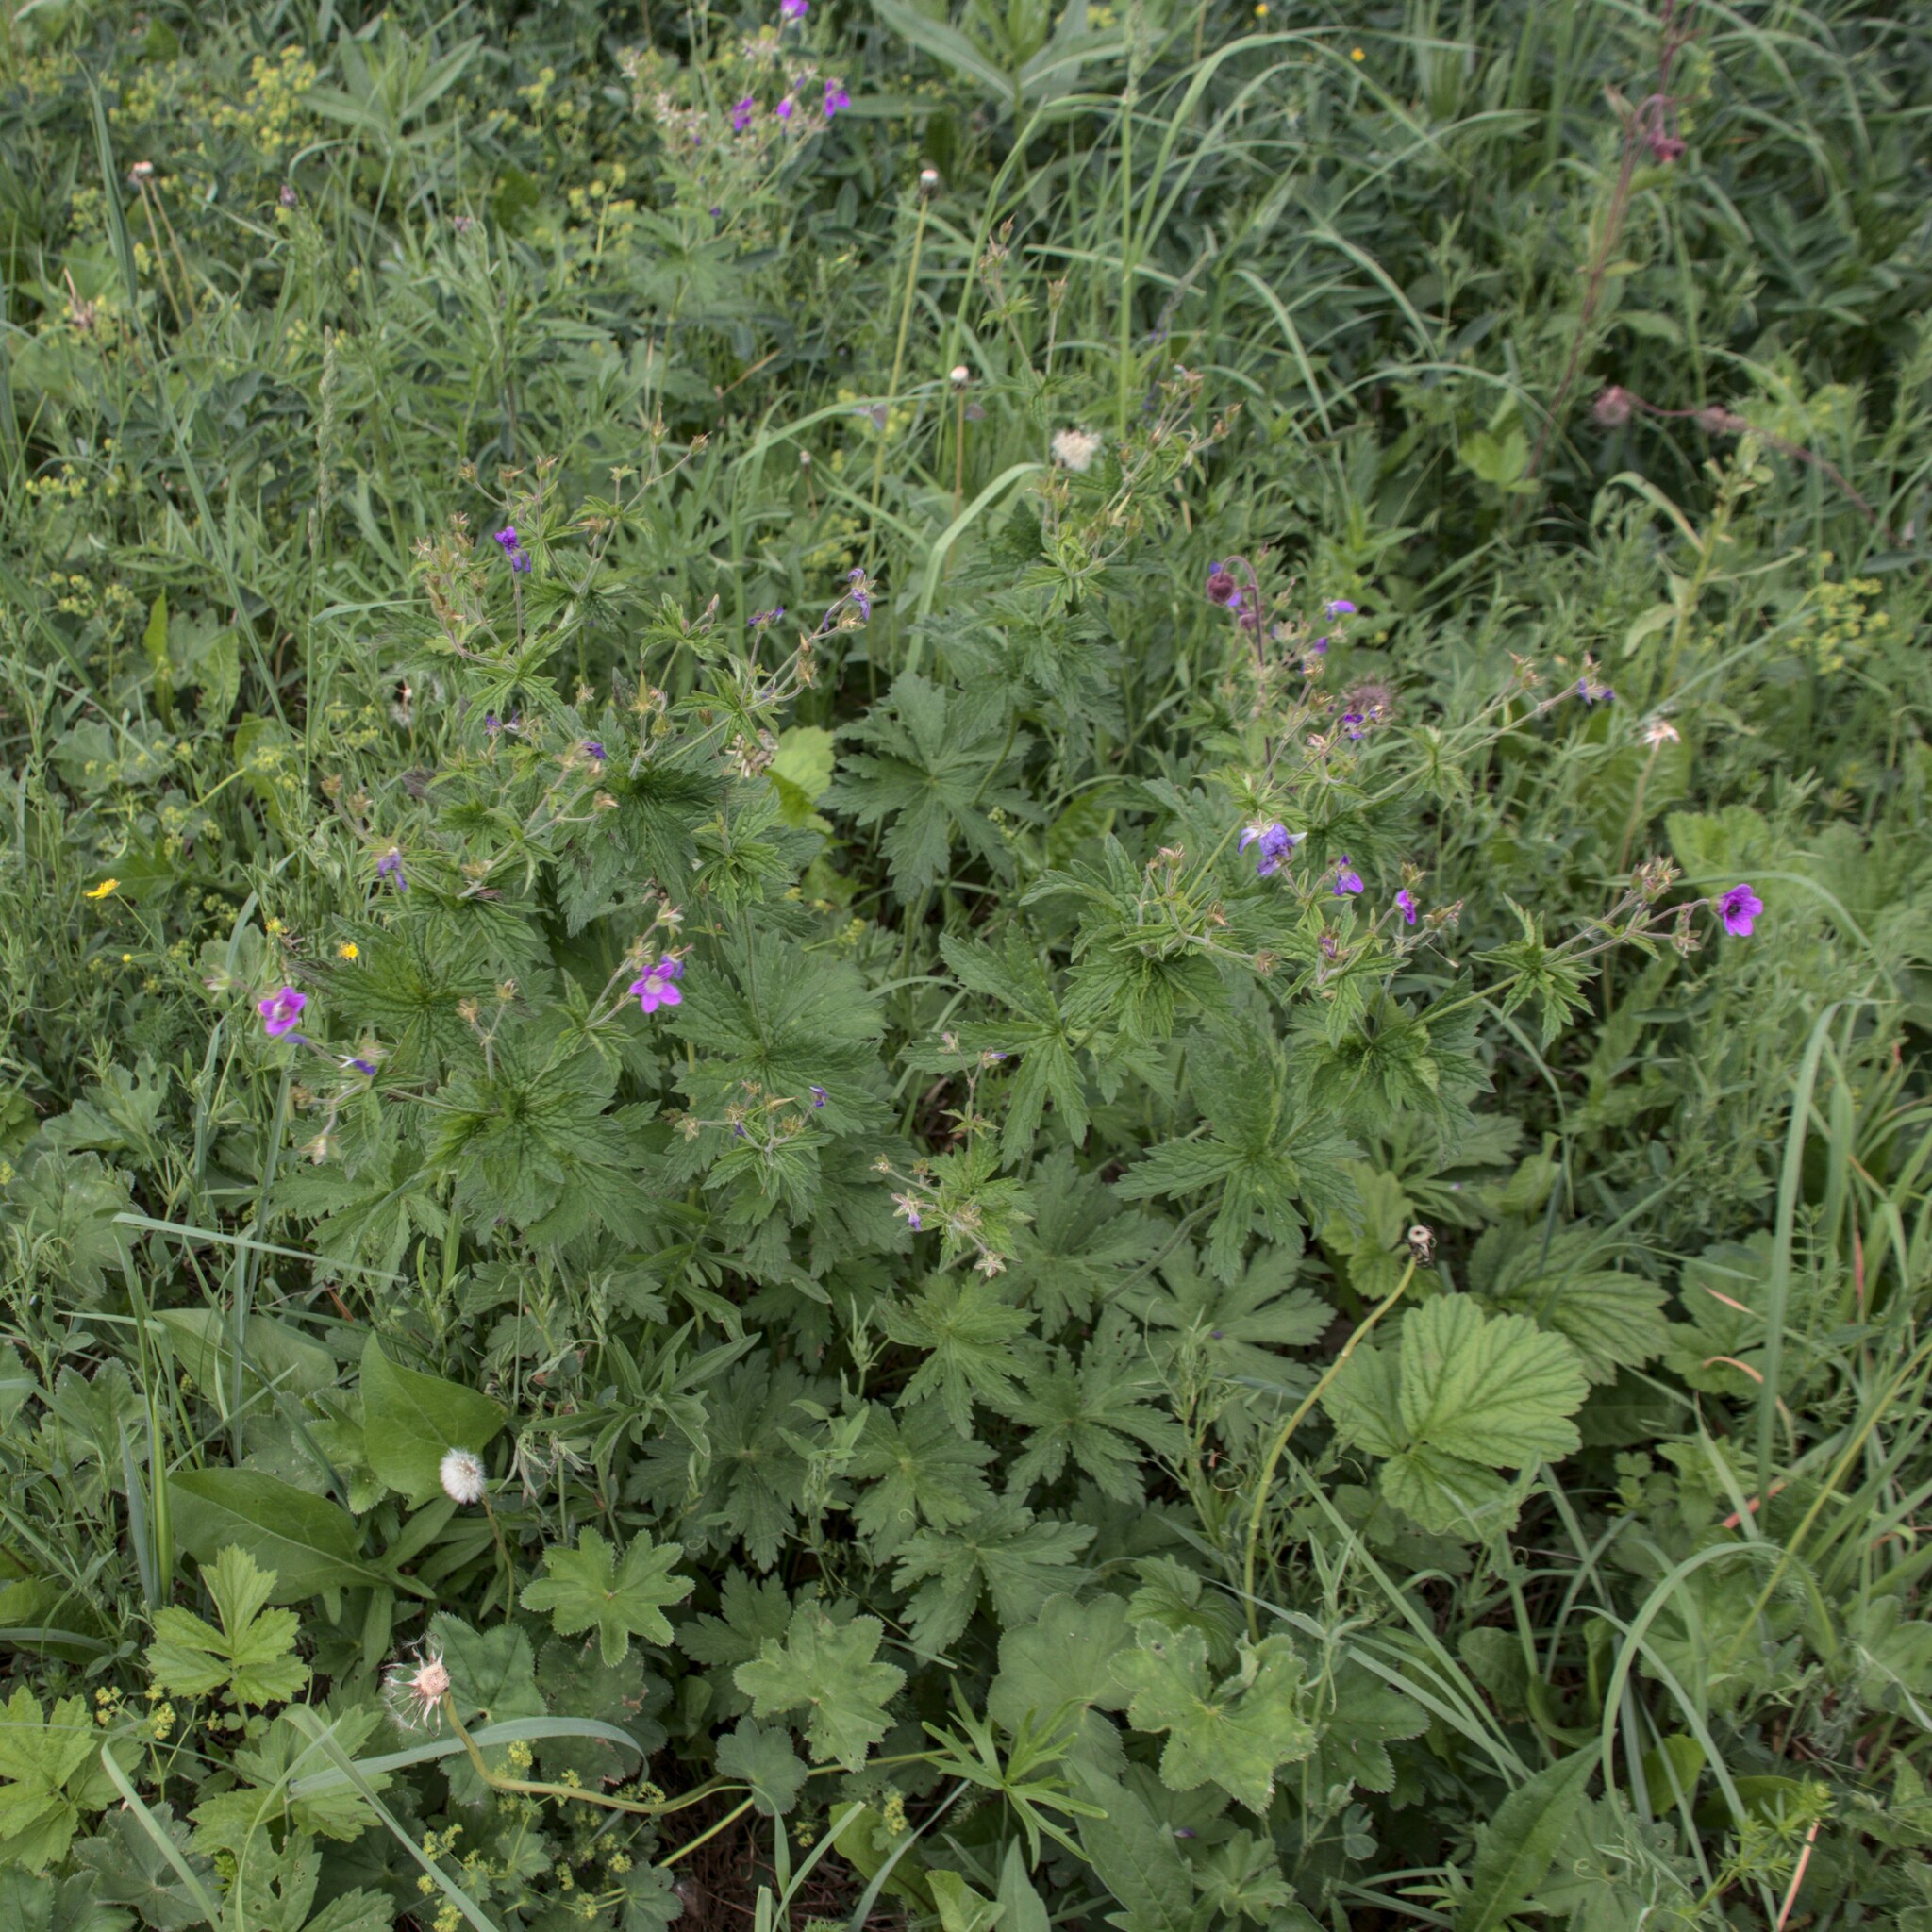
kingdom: Plantae
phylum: Tracheophyta
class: Magnoliopsida
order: Geraniales
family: Geraniaceae
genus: Geranium
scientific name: Geranium sylvaticum
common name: Wood crane's-bill
